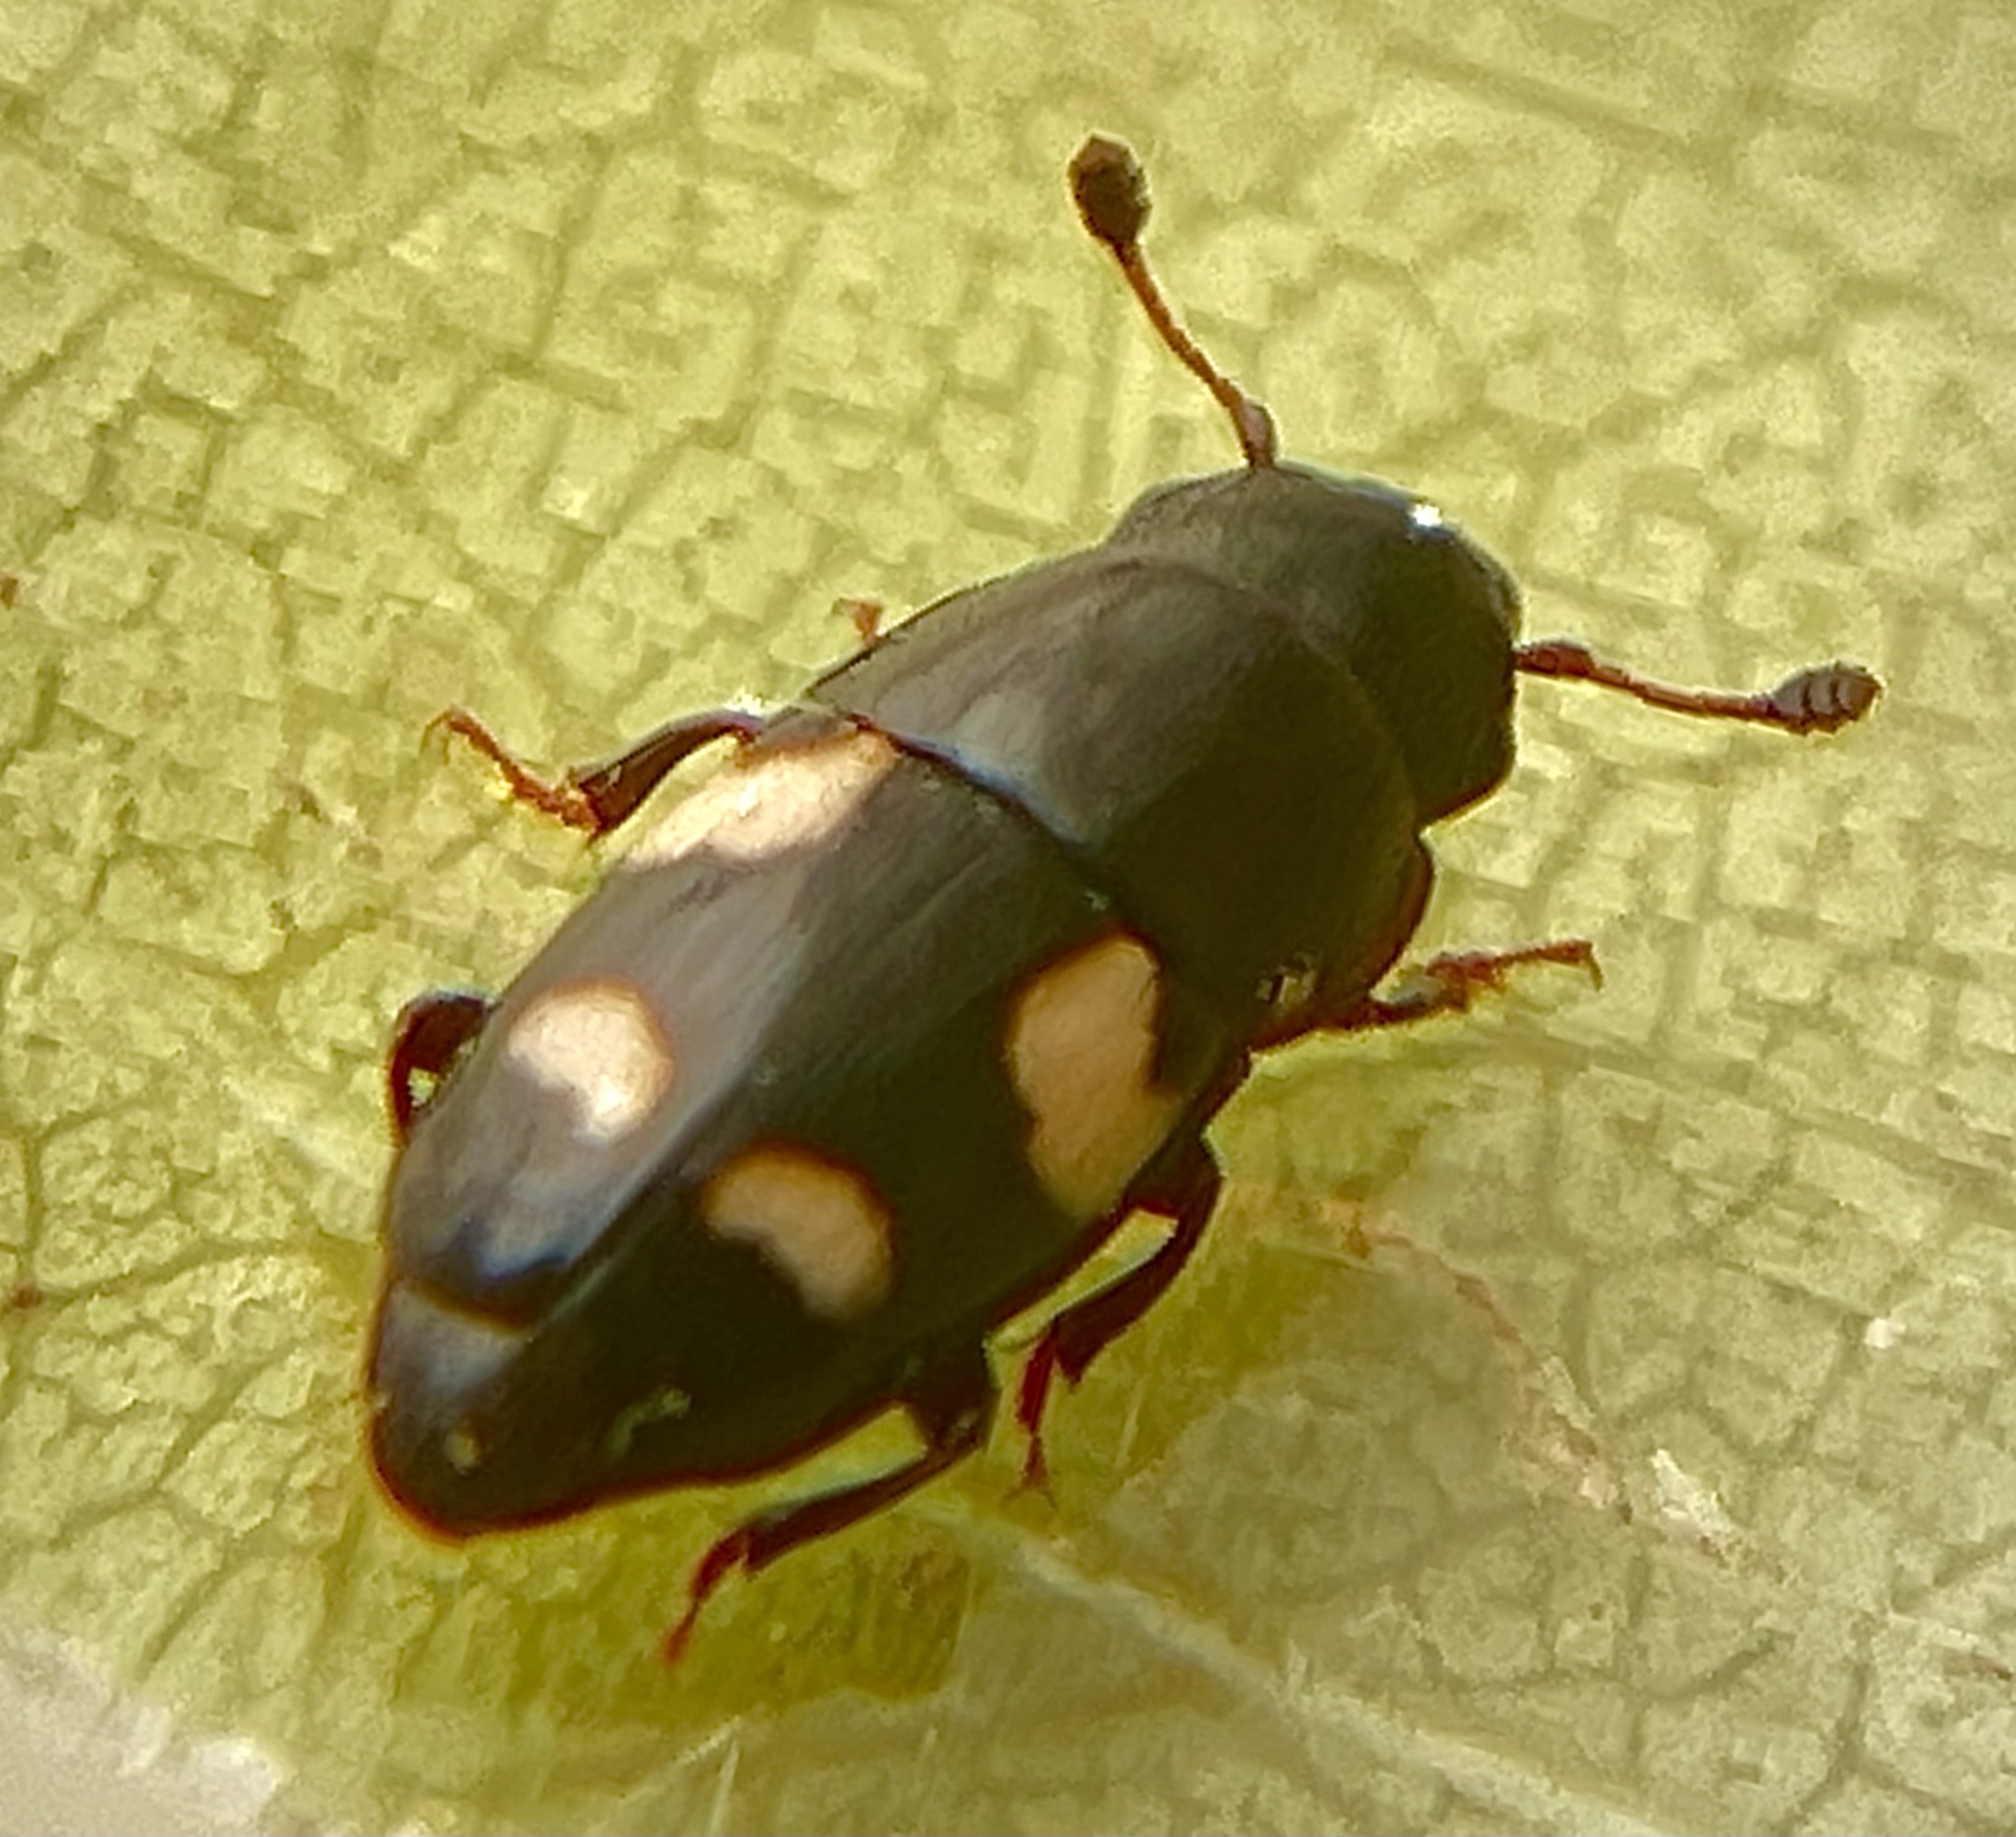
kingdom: Animalia
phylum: Arthropoda
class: Insecta
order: Coleoptera
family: Nitidulidae
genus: Glischrochilus
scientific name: Glischrochilus quadrisignatus
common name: Picnic beetle
